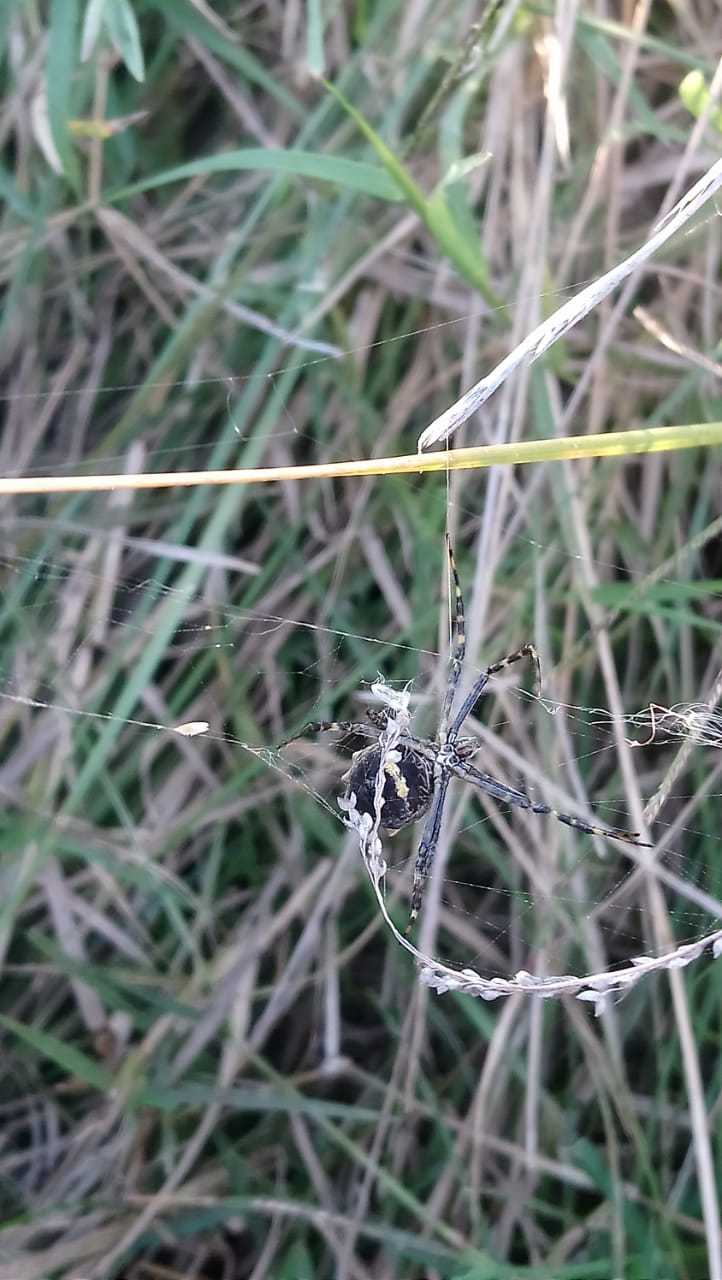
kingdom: Animalia
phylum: Arthropoda
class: Arachnida
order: Araneae
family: Araneidae
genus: Argiope
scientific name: Argiope argentata
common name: Orb weavers
